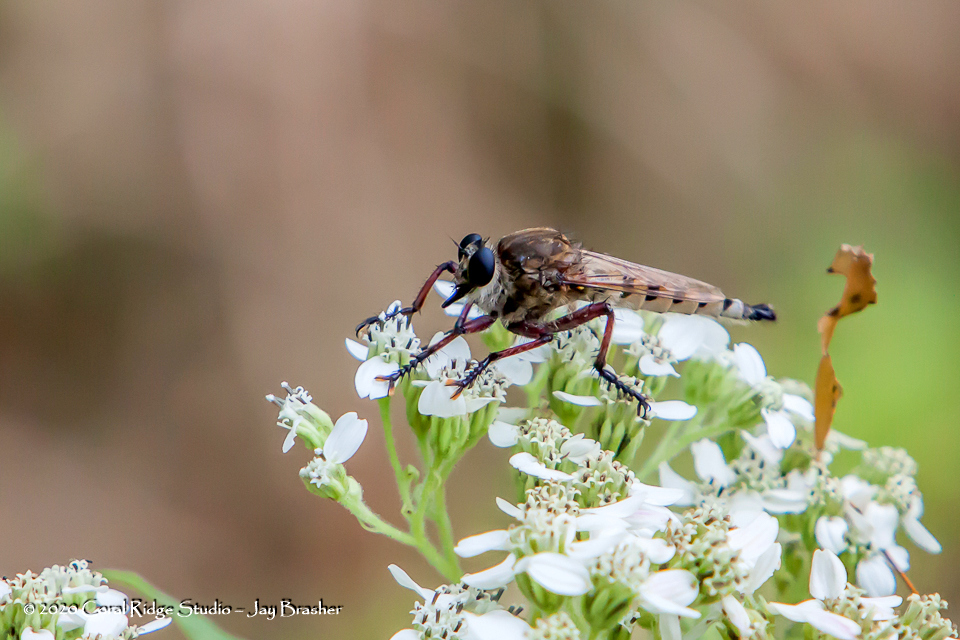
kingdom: Animalia
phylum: Arthropoda
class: Insecta
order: Diptera
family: Asilidae
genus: Promachus
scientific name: Promachus hinei
